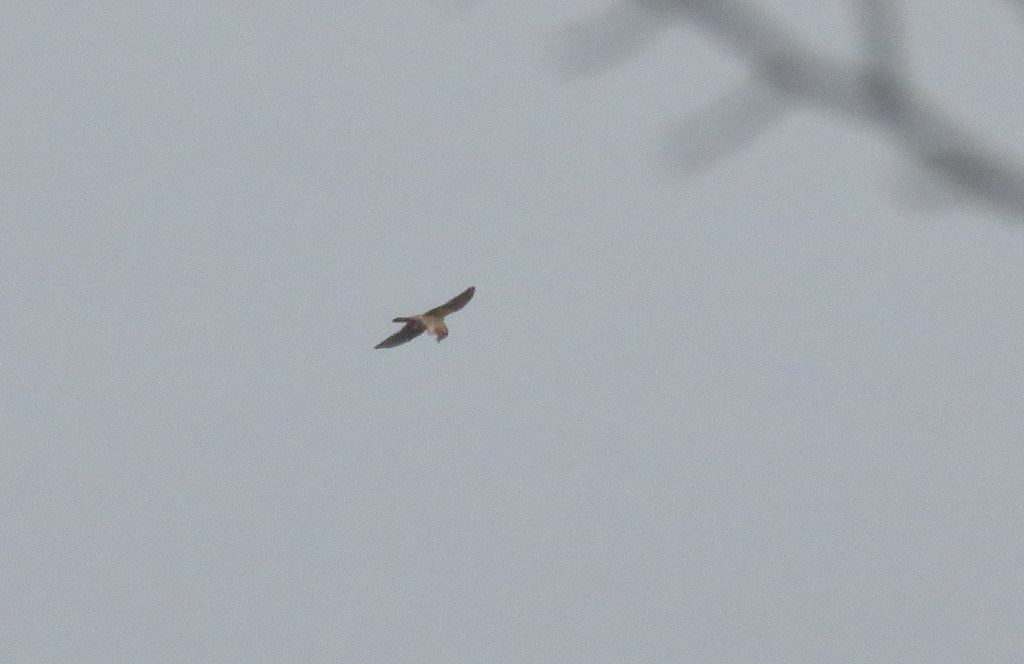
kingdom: Animalia
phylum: Chordata
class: Aves
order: Falconiformes
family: Falconidae
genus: Falco
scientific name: Falco sparverius
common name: American kestrel
